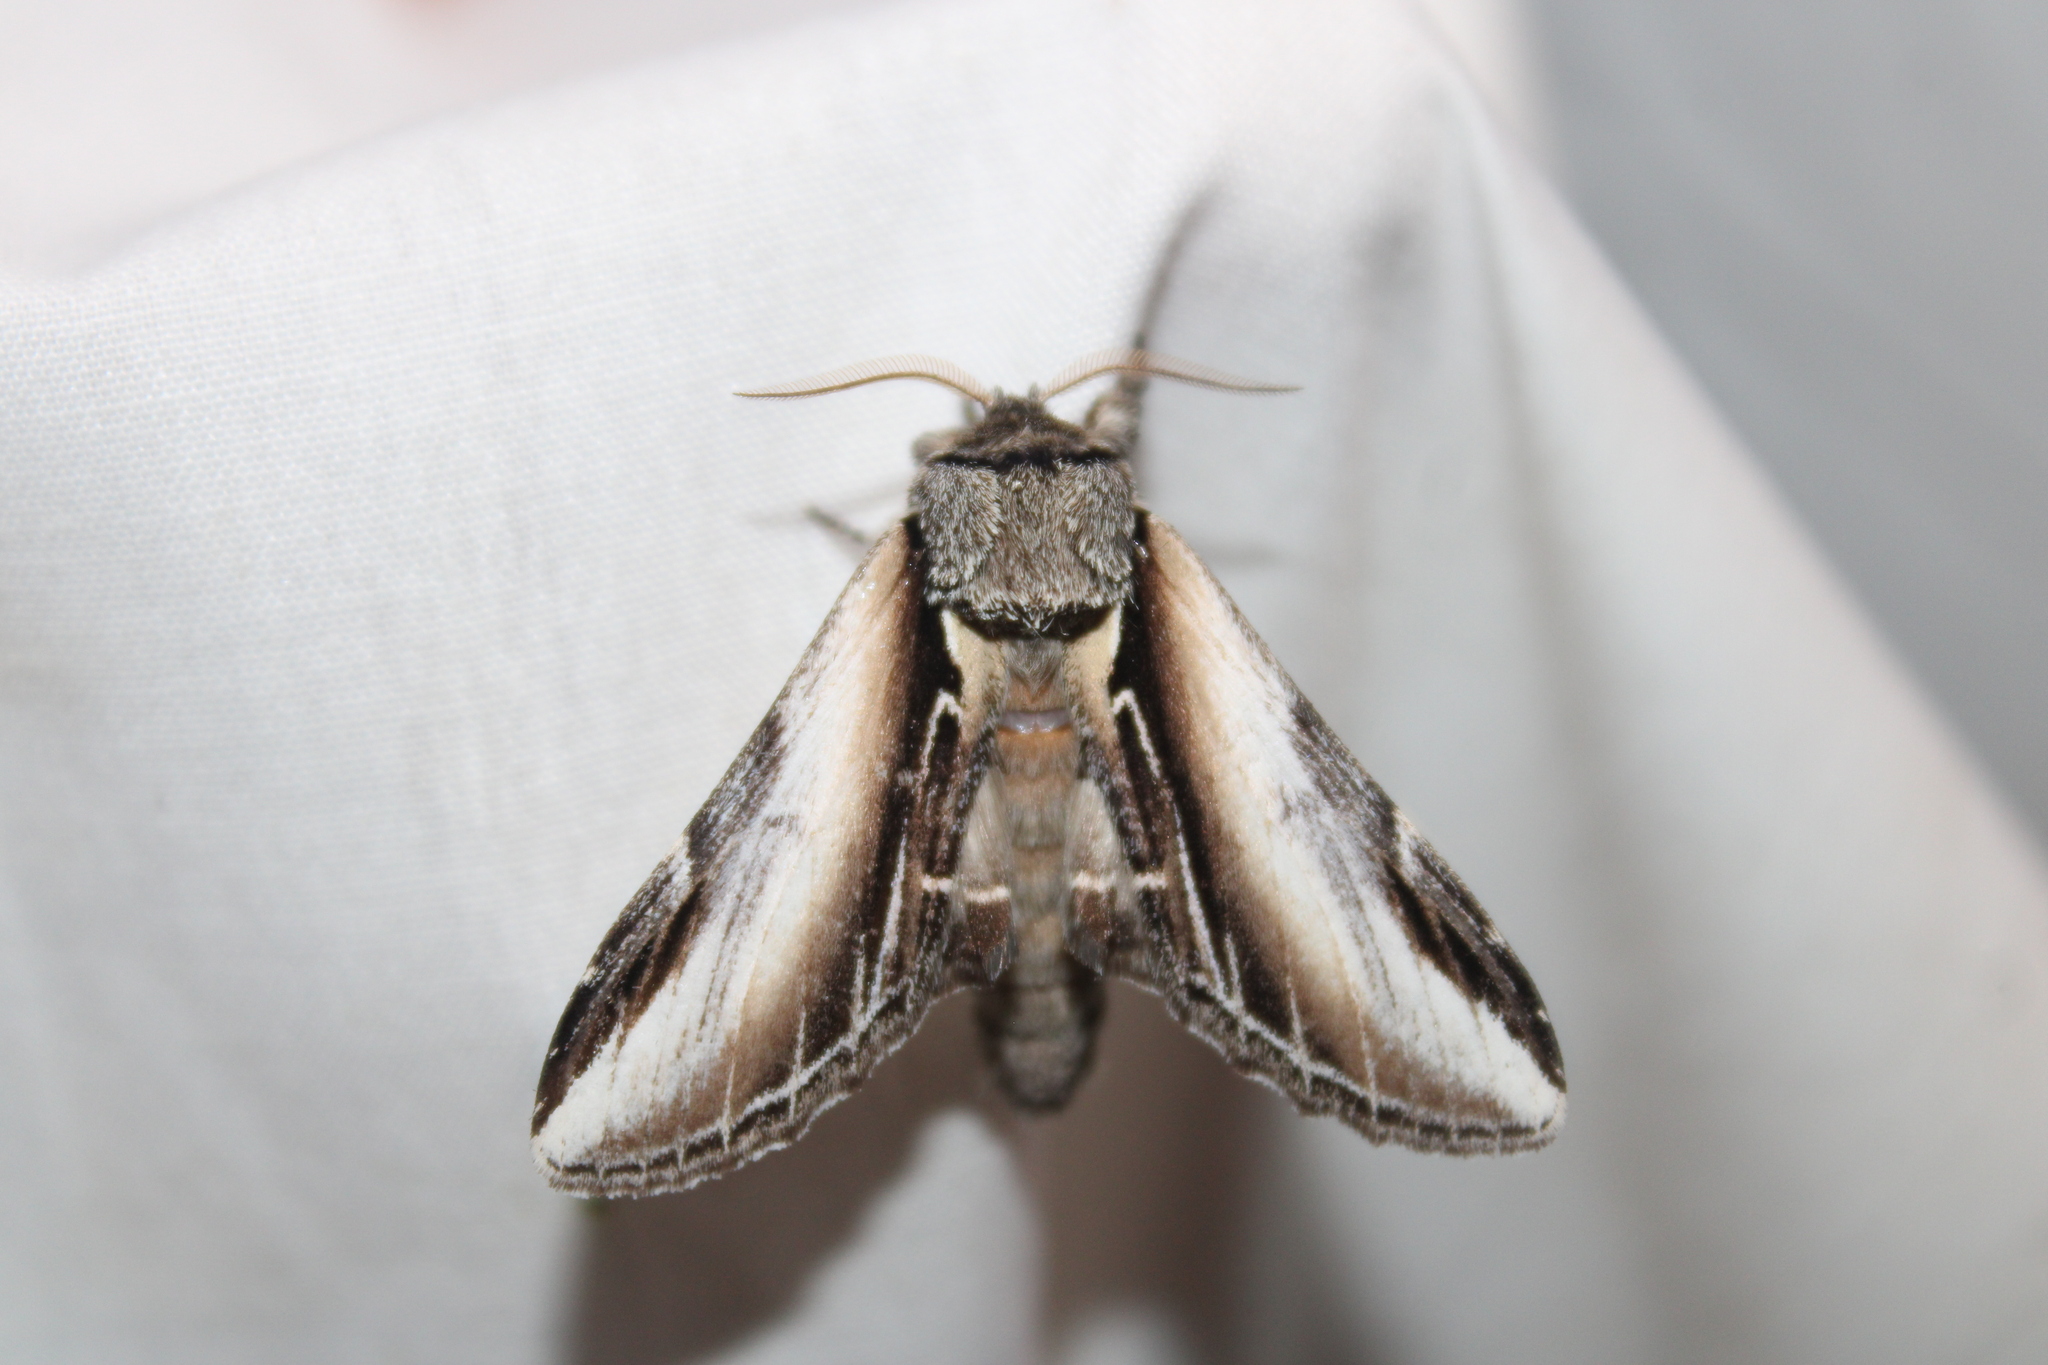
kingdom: Animalia
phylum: Arthropoda
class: Insecta
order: Lepidoptera
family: Notodontidae
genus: Pheosia
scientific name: Pheosia rimosa
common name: Black-rimmed prominent
